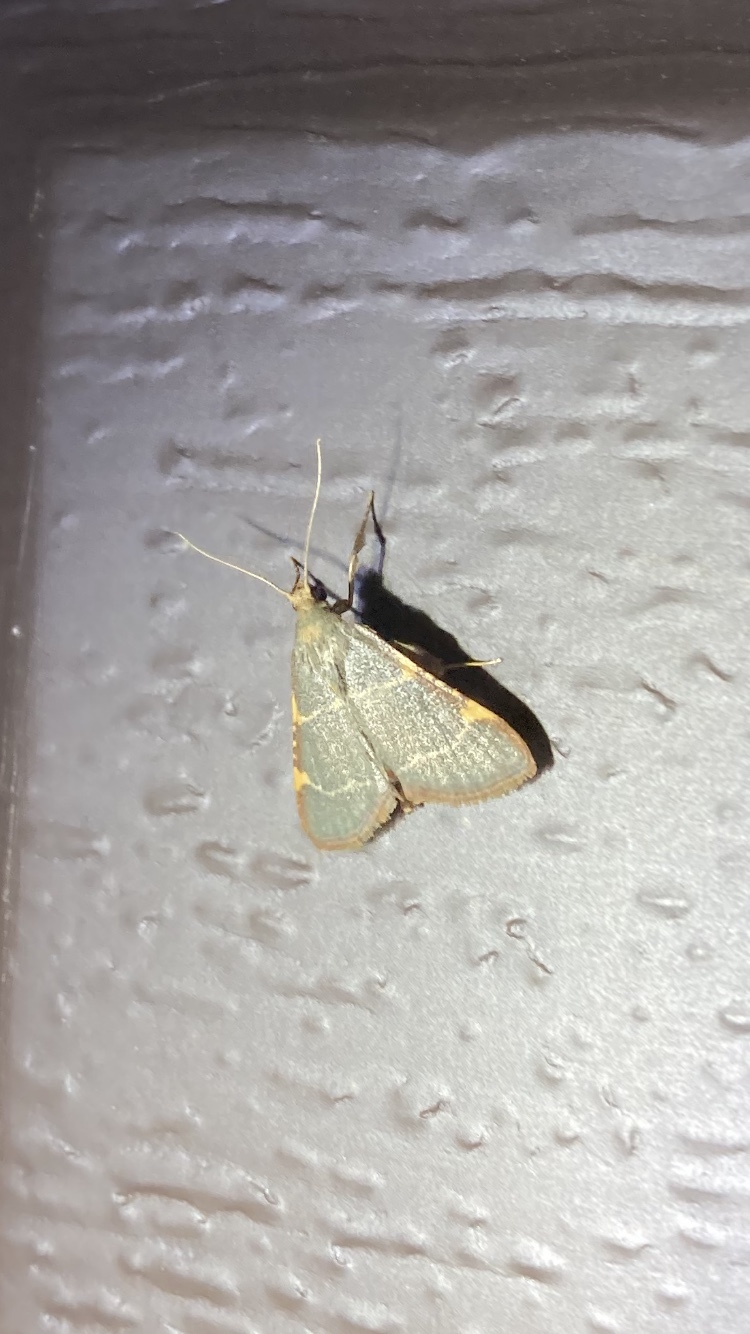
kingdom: Animalia
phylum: Arthropoda
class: Insecta
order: Lepidoptera
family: Pyralidae
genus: Hypsopygia
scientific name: Hypsopygia binodulalis
